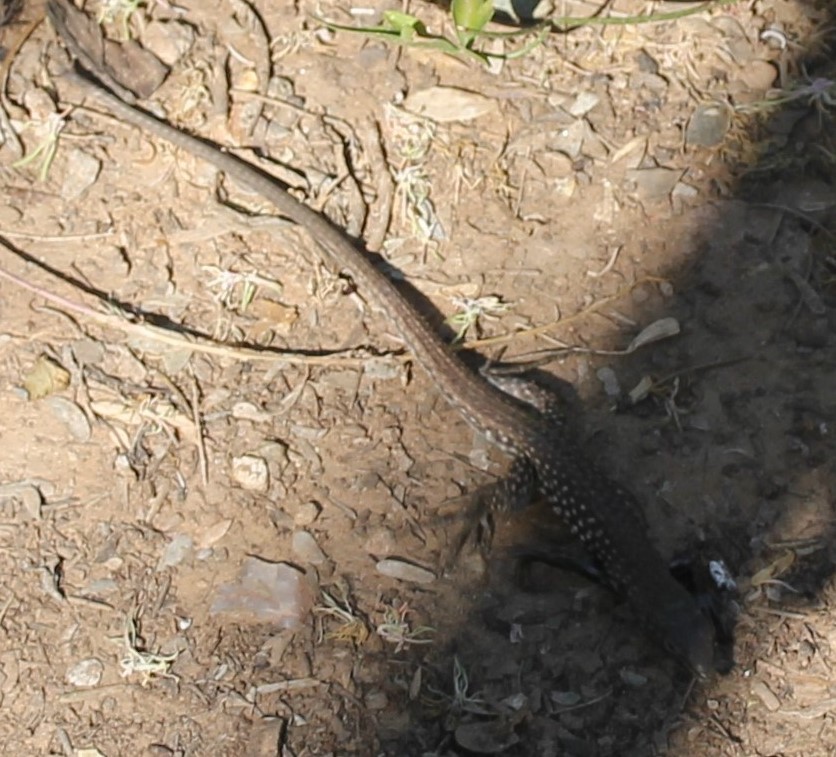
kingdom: Animalia
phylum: Chordata
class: Squamata
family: Teiidae
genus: Aspidoscelis
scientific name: Aspidoscelis tigris
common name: Tiger whiptail
